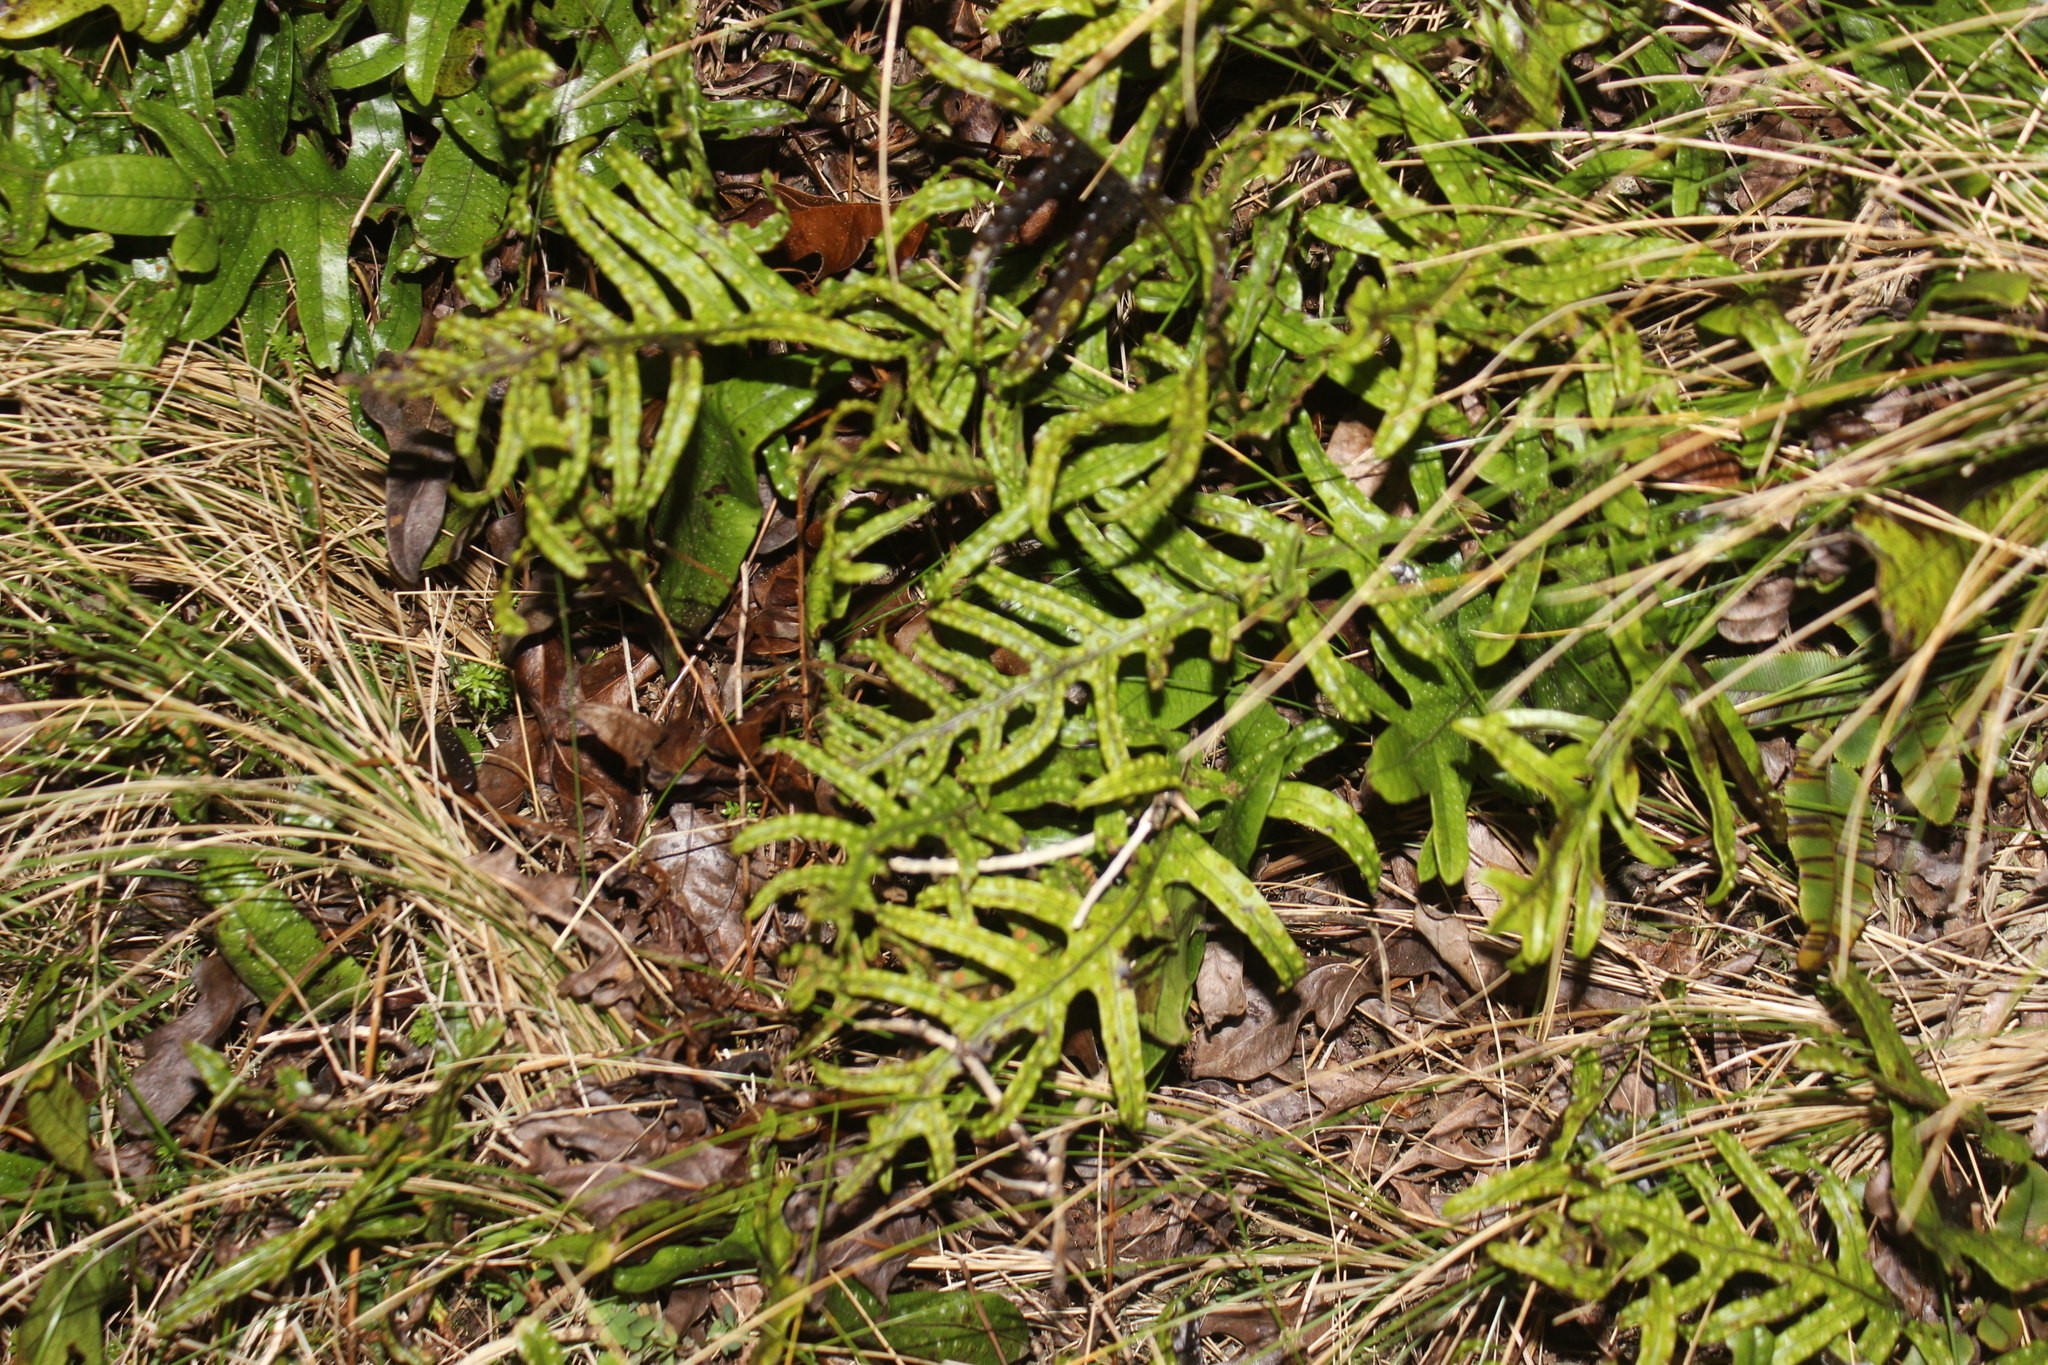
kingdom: Plantae
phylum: Tracheophyta
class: Polypodiopsida
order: Polypodiales
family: Polypodiaceae
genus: Lecanopteris
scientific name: Lecanopteris pustulata
